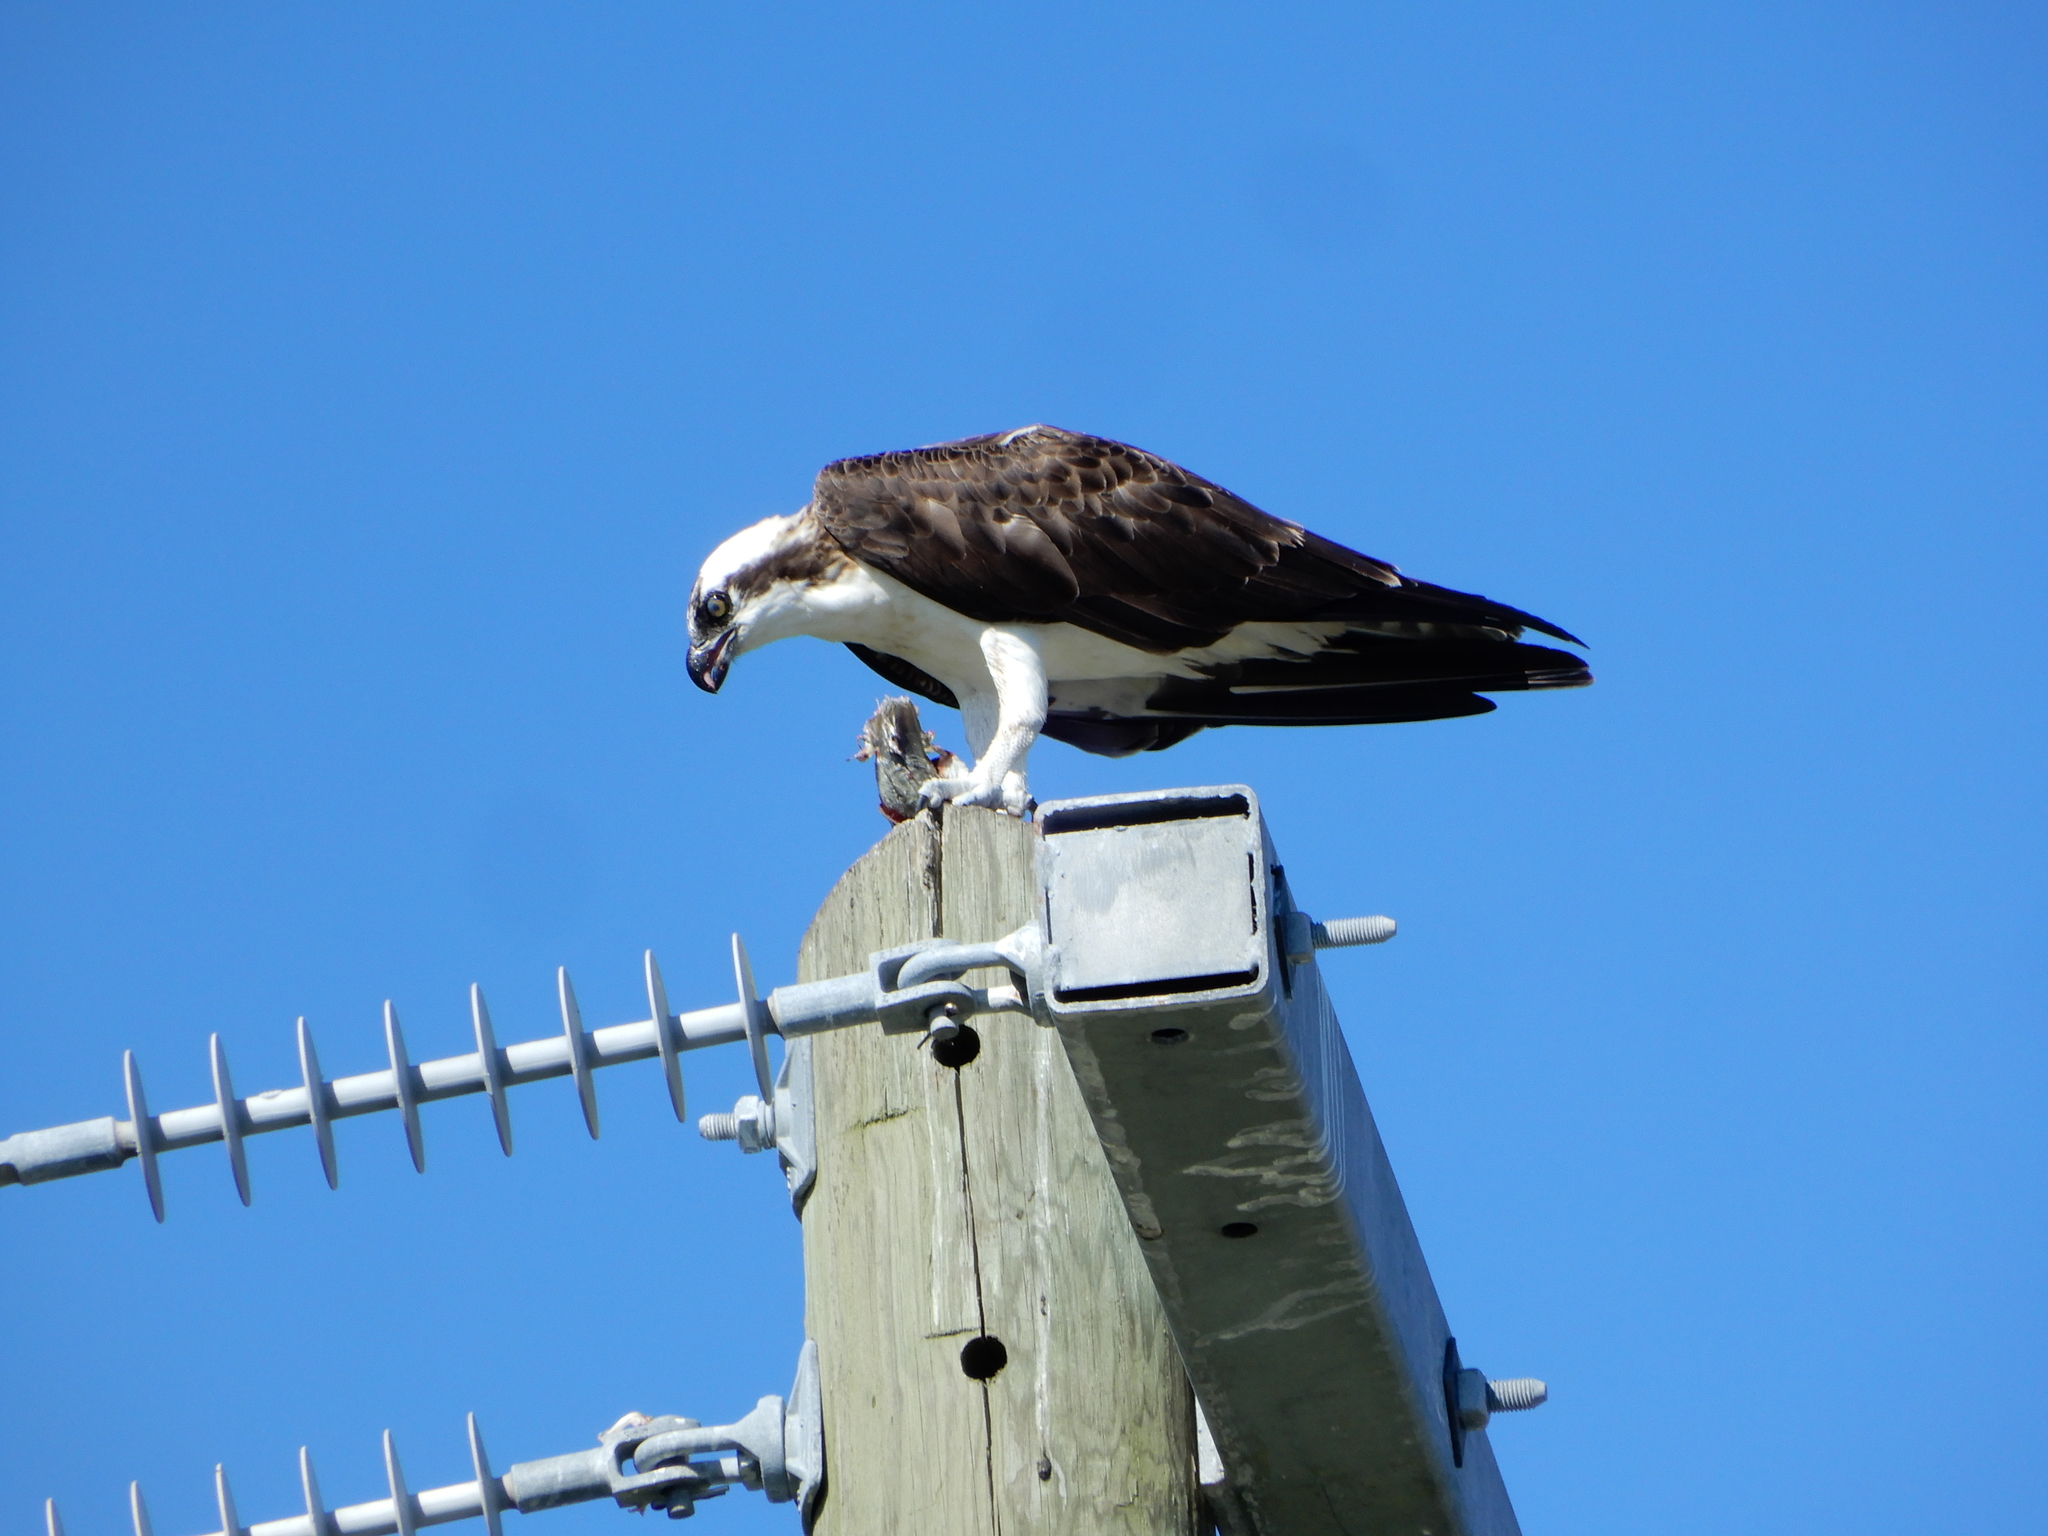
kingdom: Animalia
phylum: Chordata
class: Aves
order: Accipitriformes
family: Pandionidae
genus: Pandion
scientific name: Pandion haliaetus
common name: Osprey
